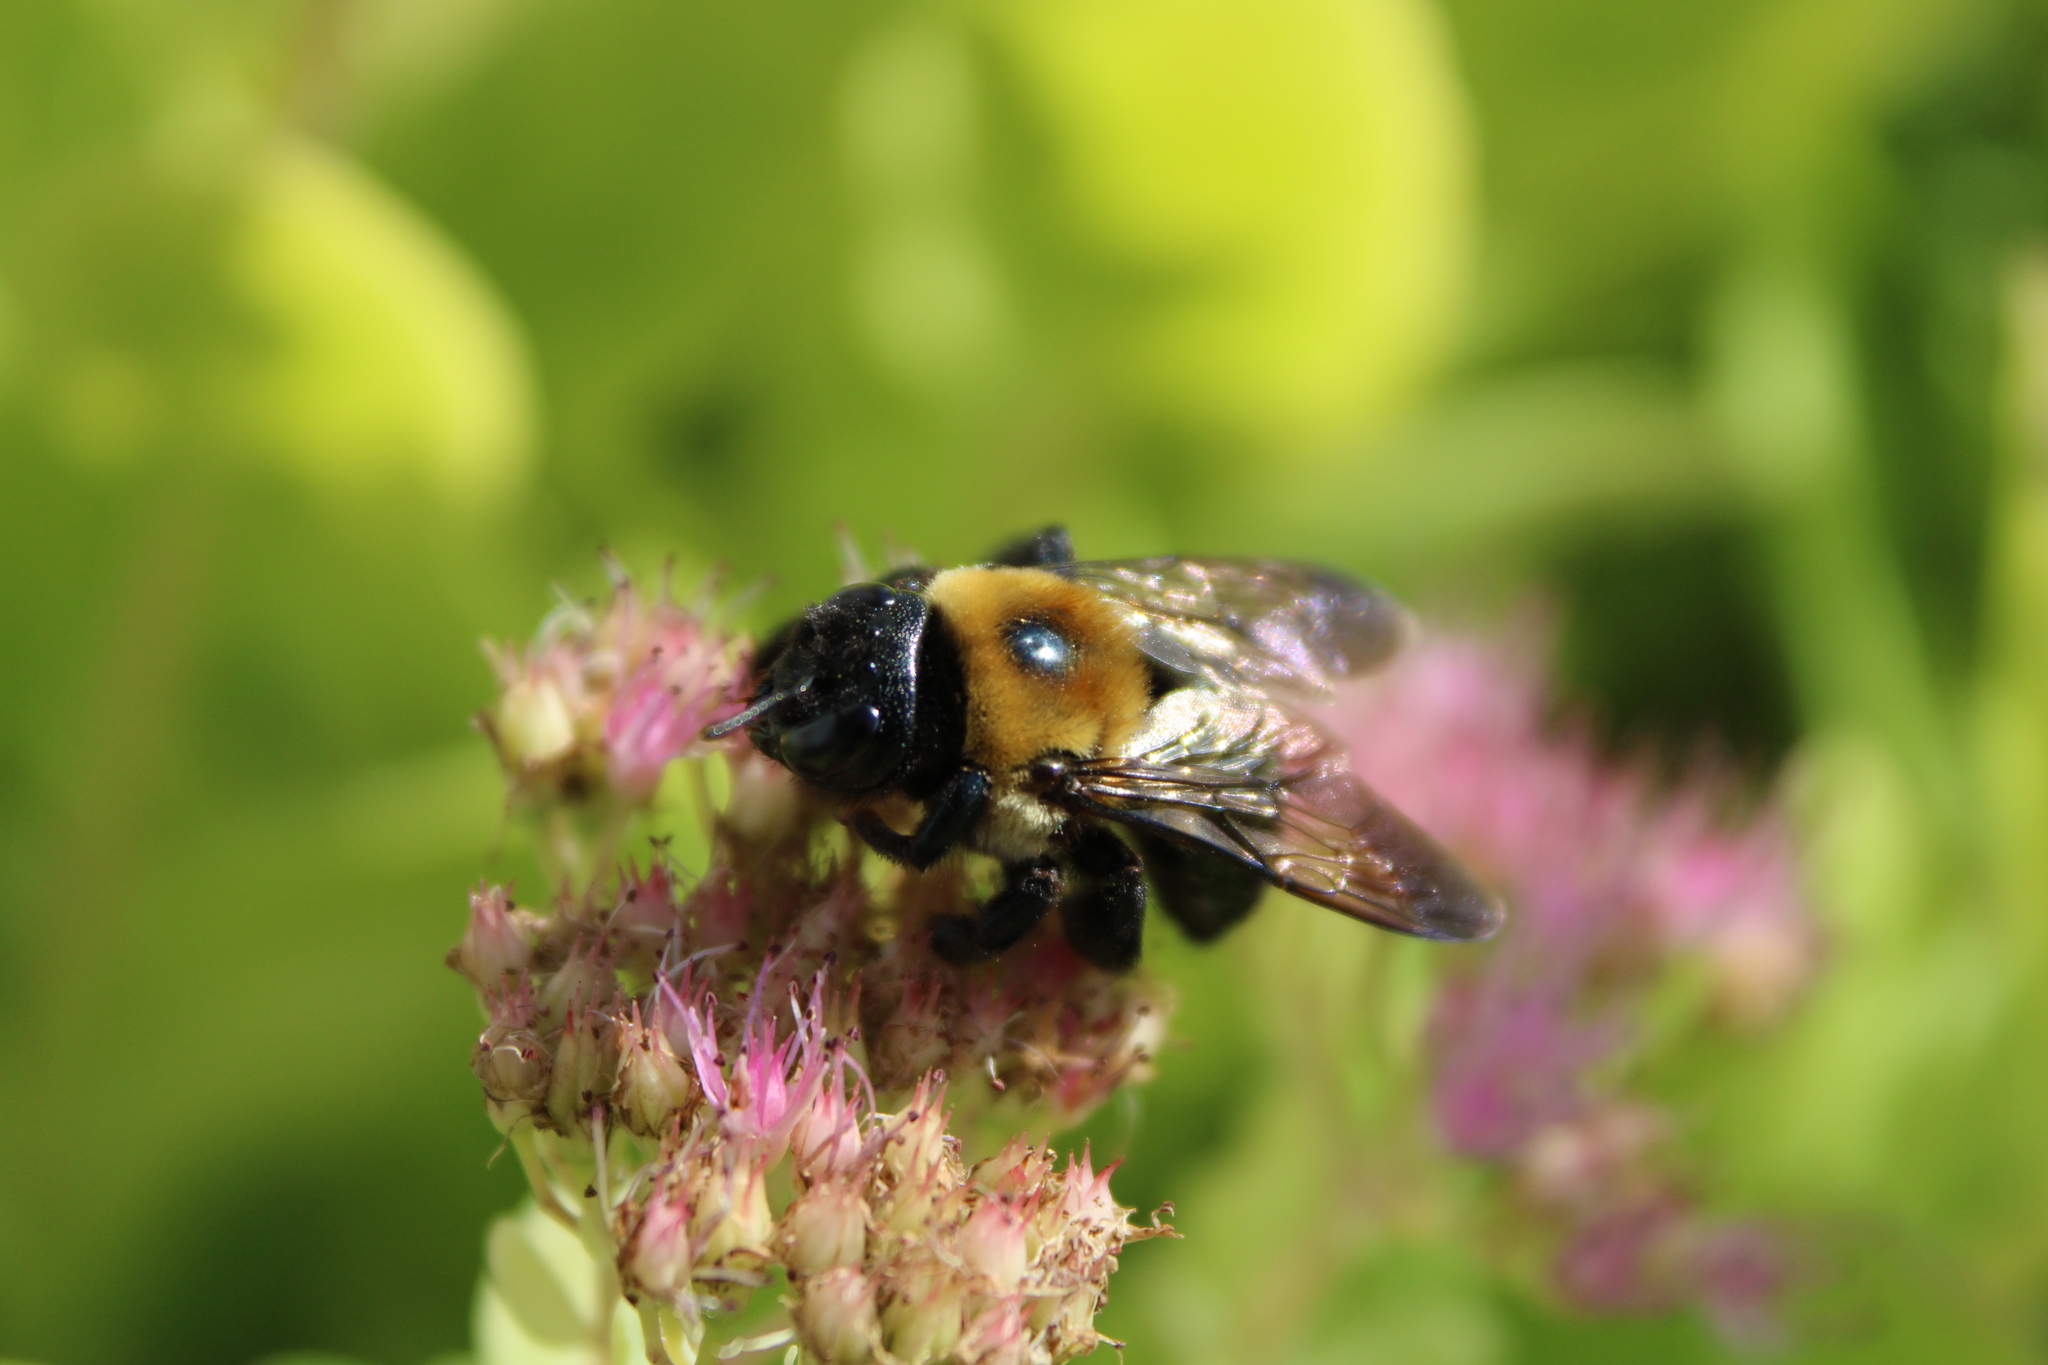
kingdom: Animalia
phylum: Arthropoda
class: Insecta
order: Hymenoptera
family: Apidae
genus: Xylocopa
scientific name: Xylocopa virginica
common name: Carpenter bee
